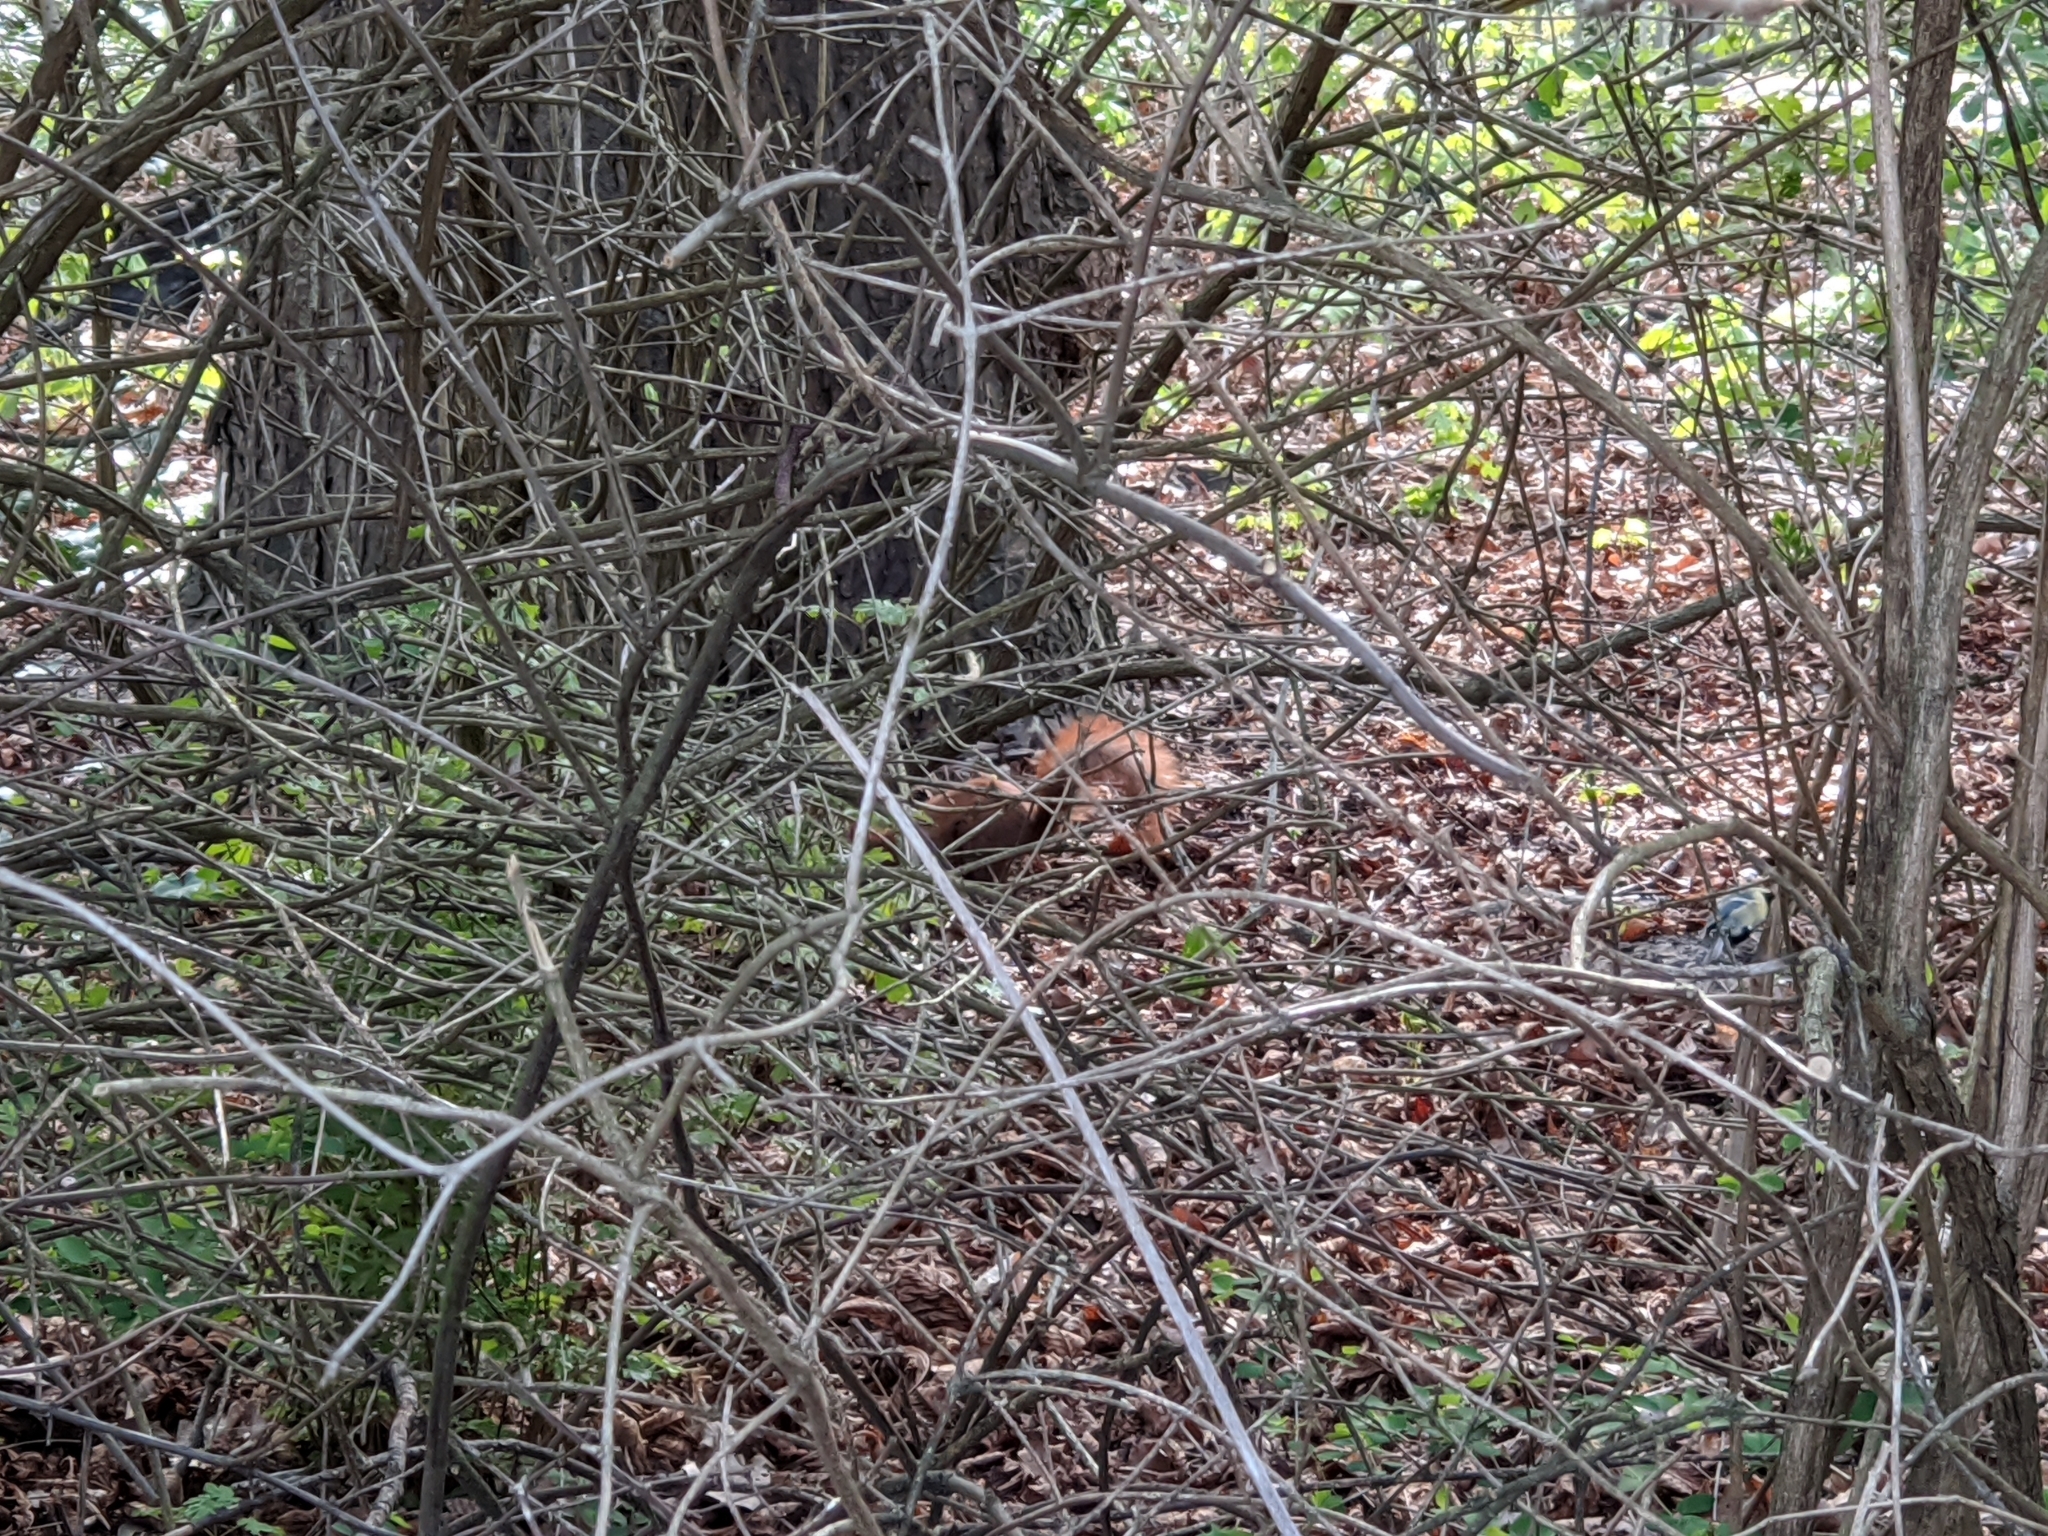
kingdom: Animalia
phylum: Chordata
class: Mammalia
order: Rodentia
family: Sciuridae
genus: Sciurus
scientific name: Sciurus vulgaris
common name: Eurasian red squirrel
